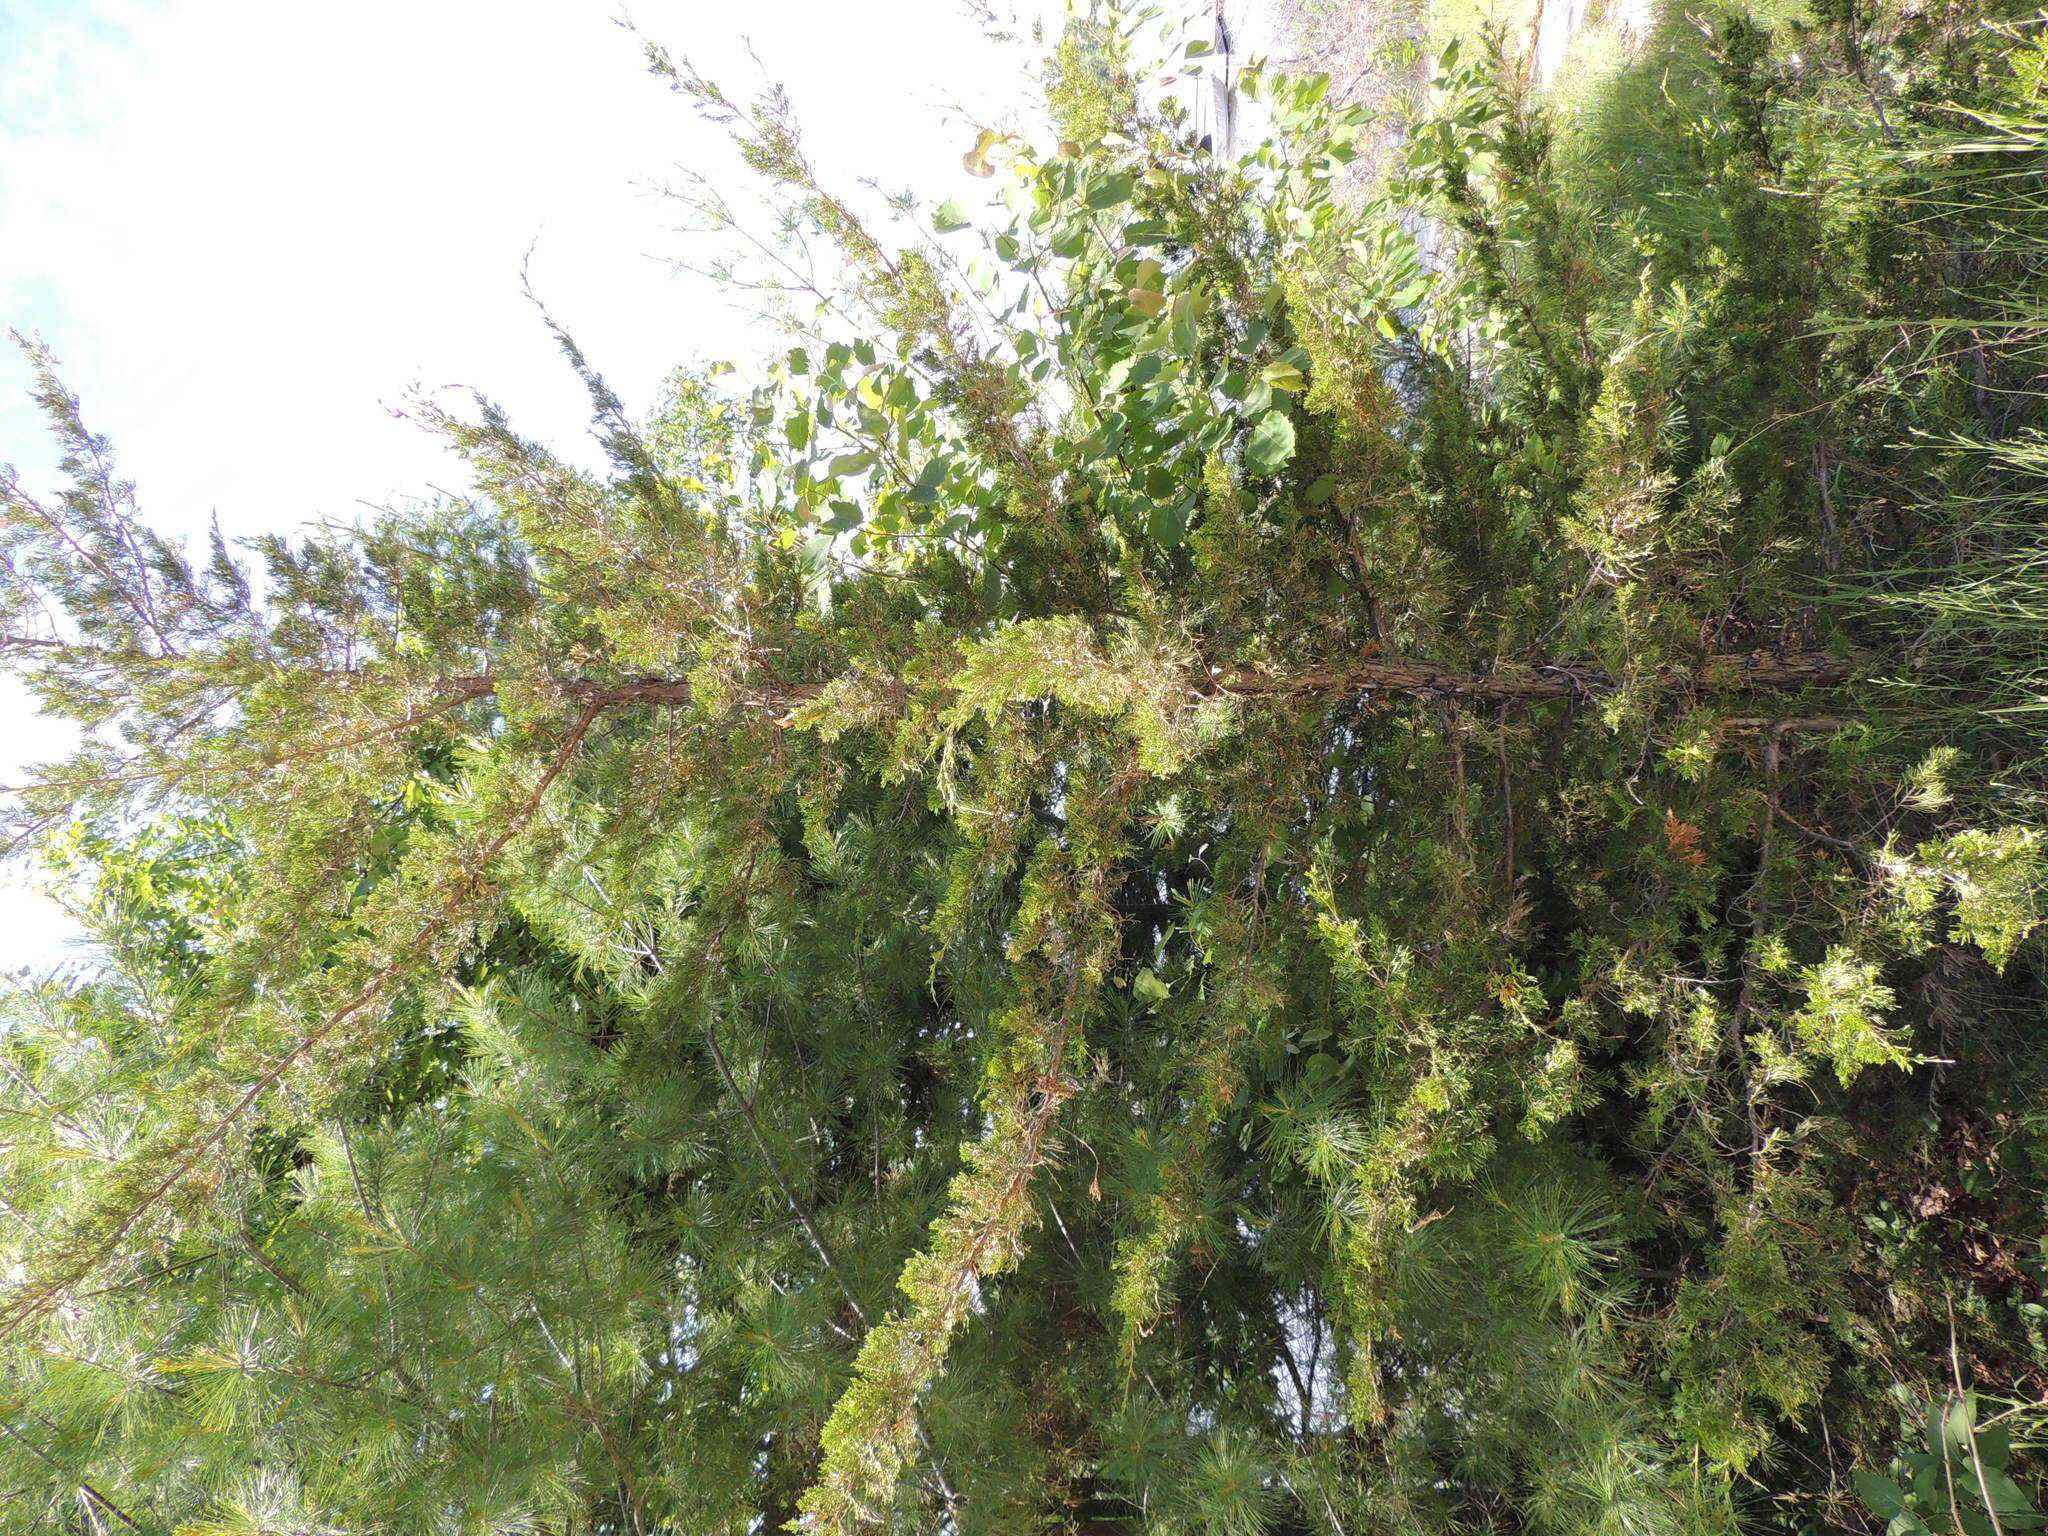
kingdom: Plantae
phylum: Tracheophyta
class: Pinopsida
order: Pinales
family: Cupressaceae
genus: Juniperus
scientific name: Juniperus virginiana
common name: Red juniper
